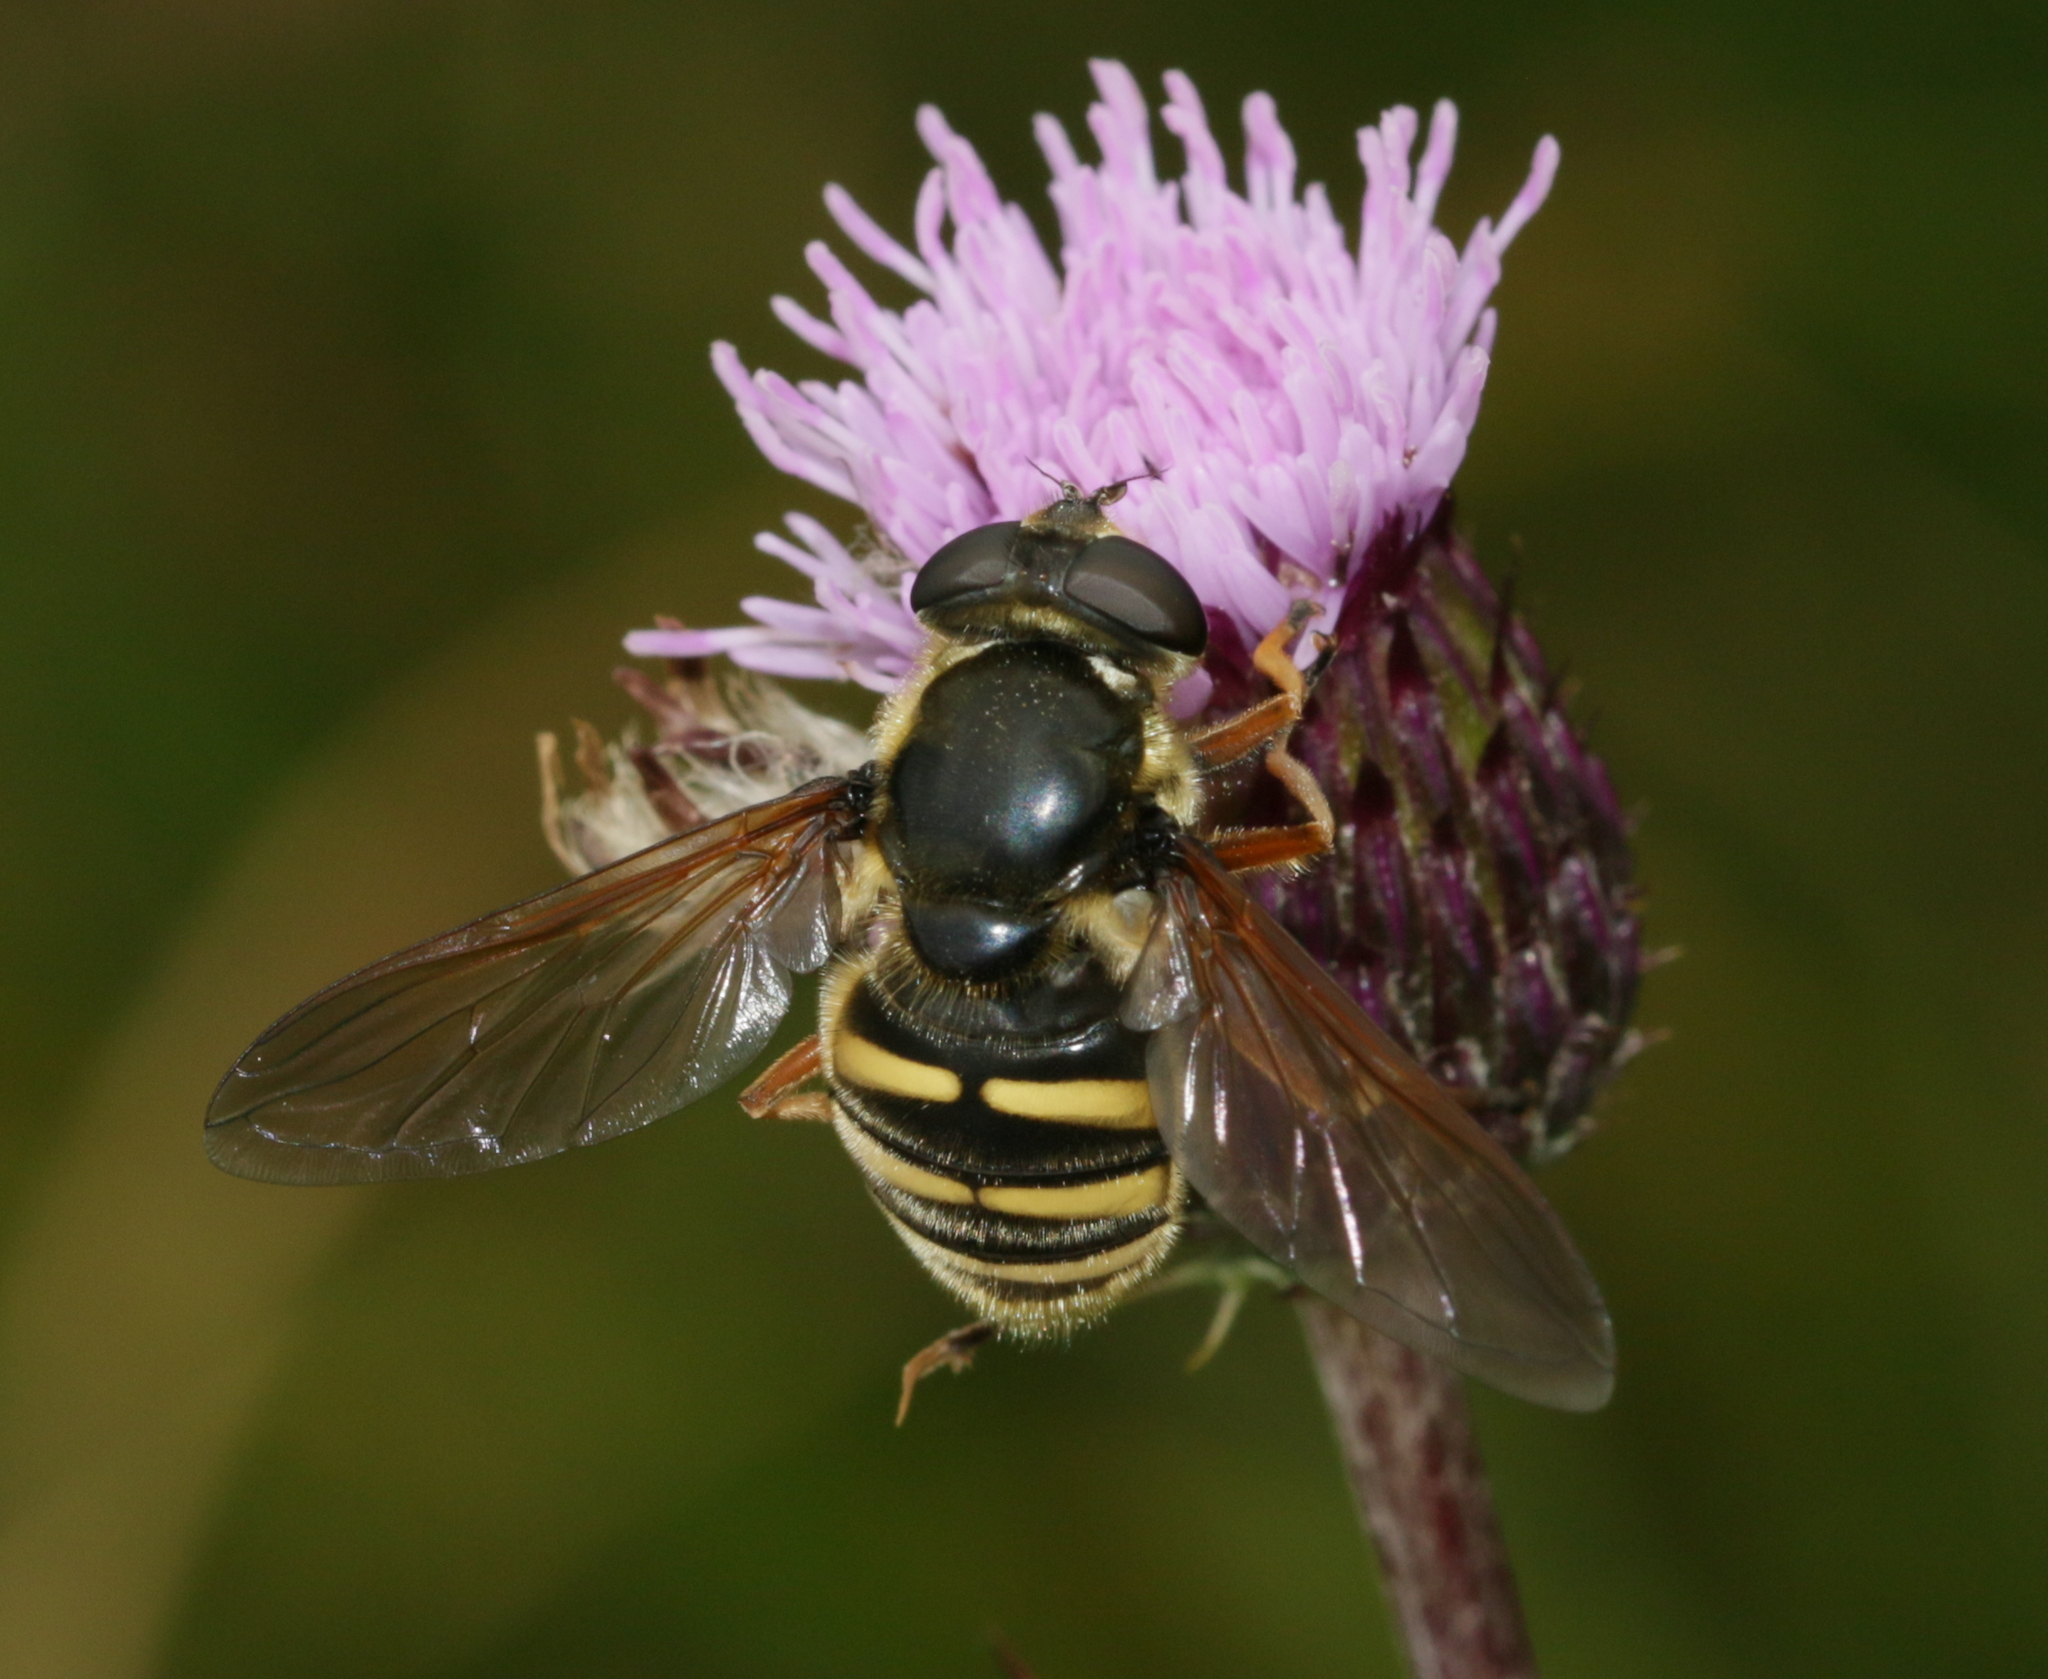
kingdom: Animalia
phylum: Arthropoda
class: Insecta
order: Diptera
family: Syrphidae
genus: Sericomyia
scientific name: Sericomyia silentis
